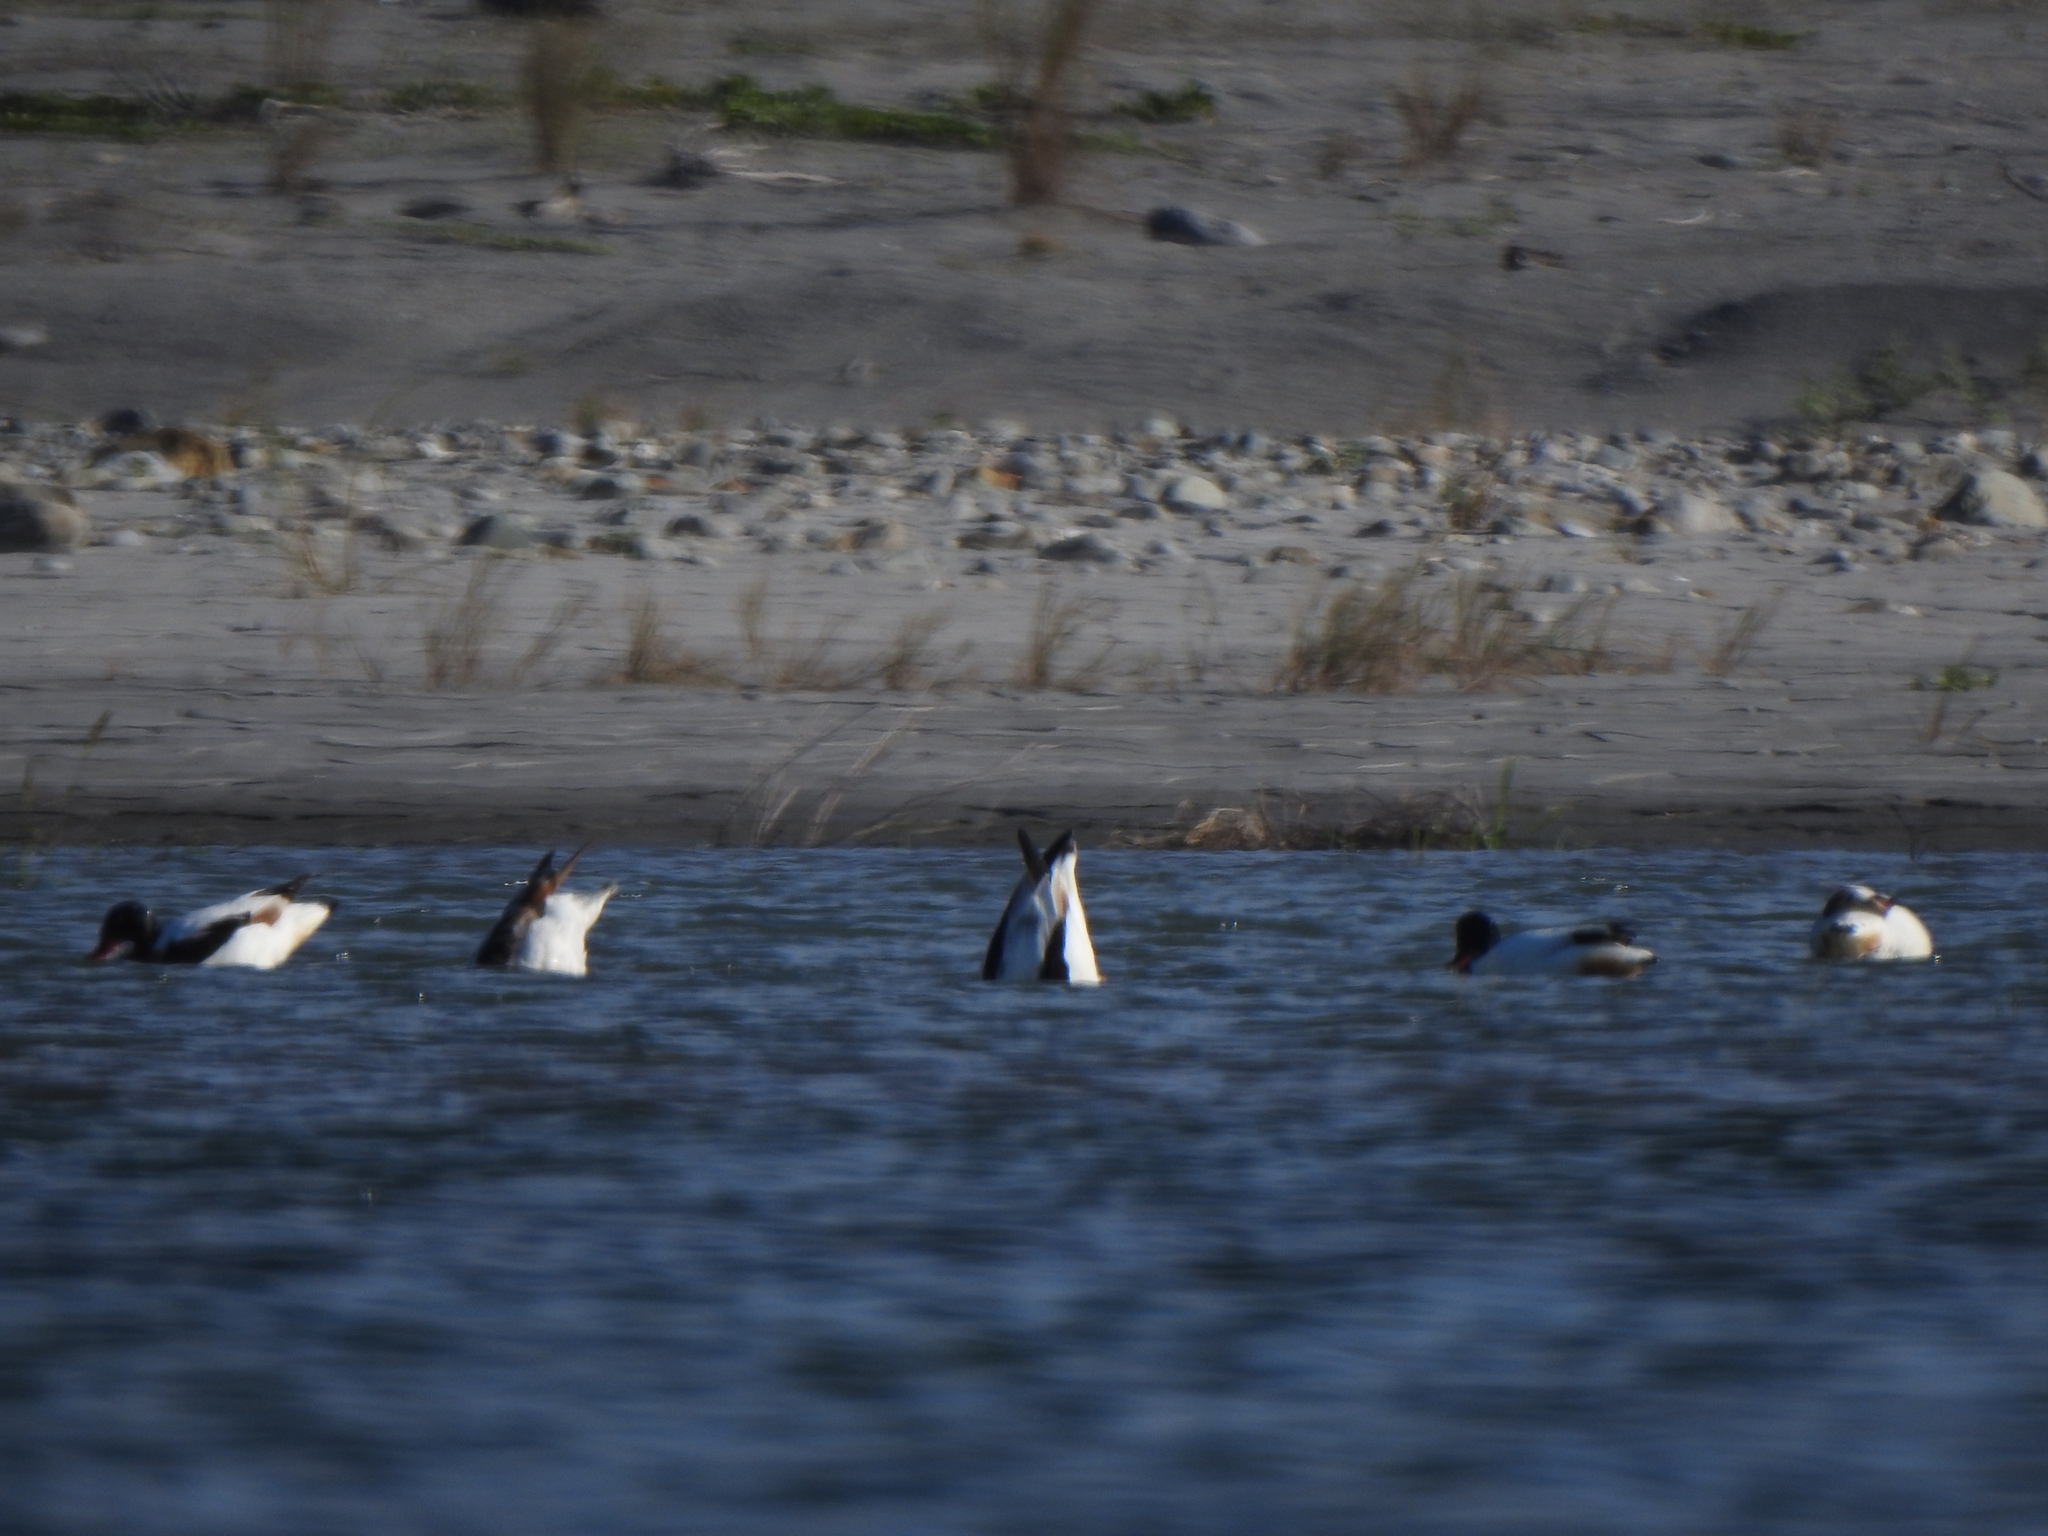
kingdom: Animalia
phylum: Chordata
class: Aves
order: Anseriformes
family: Anatidae
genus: Tadorna
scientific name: Tadorna tadorna
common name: Common shelduck
